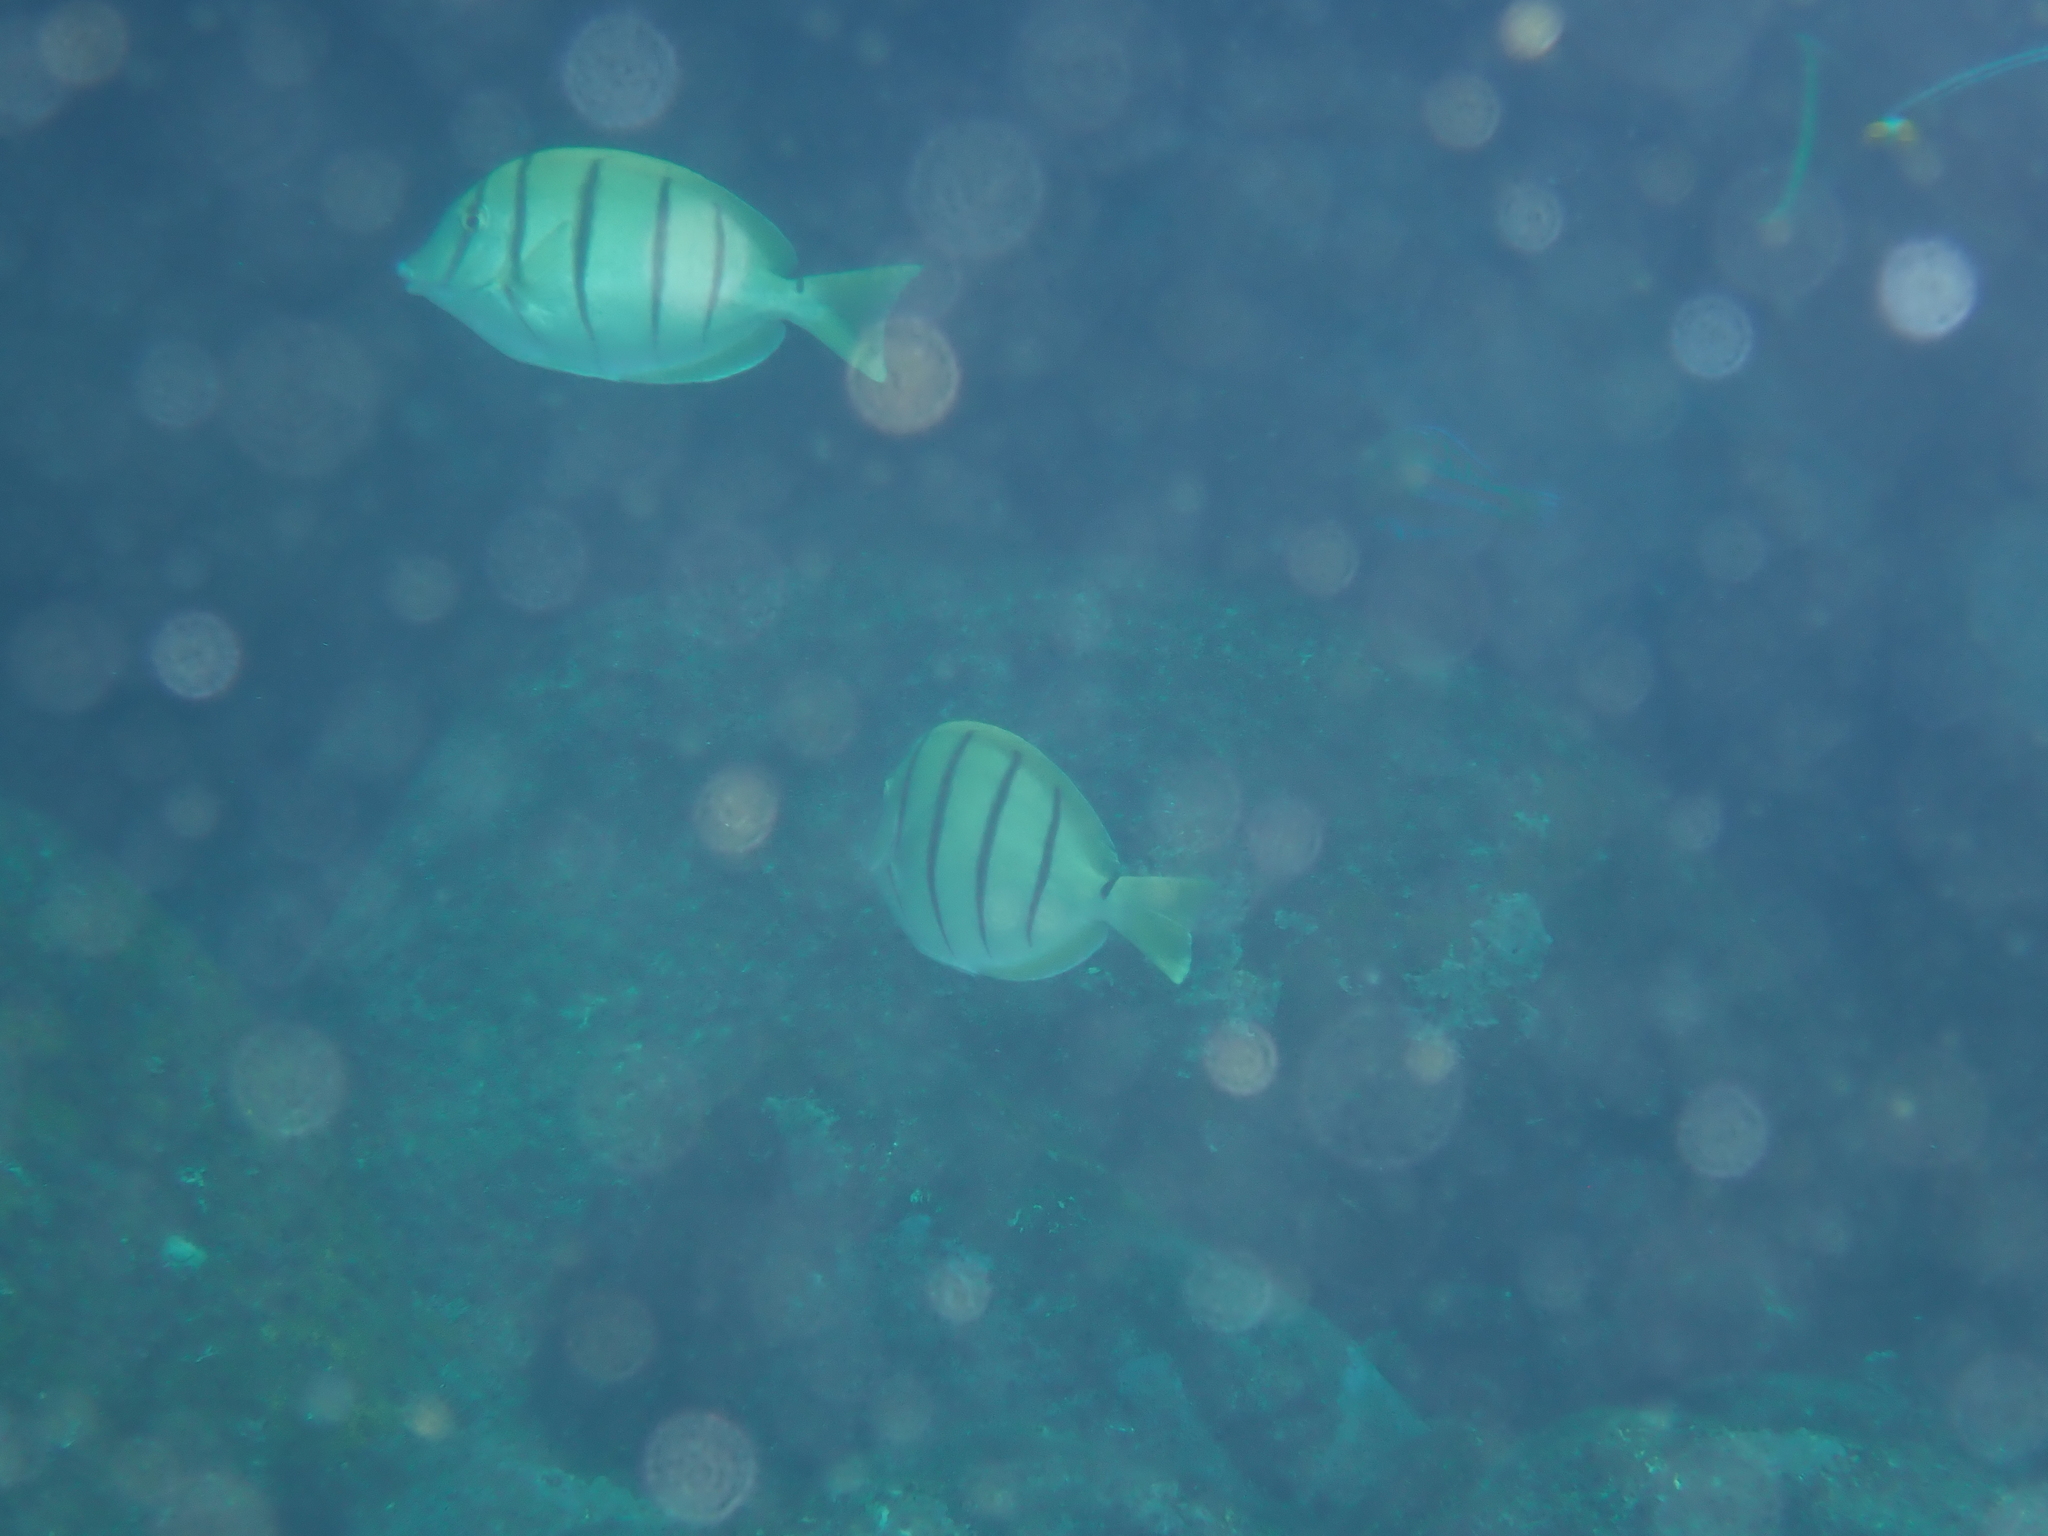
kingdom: Animalia
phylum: Chordata
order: Perciformes
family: Acanthuridae
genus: Acanthurus
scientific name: Acanthurus triostegus
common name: Convict surgeonfish
